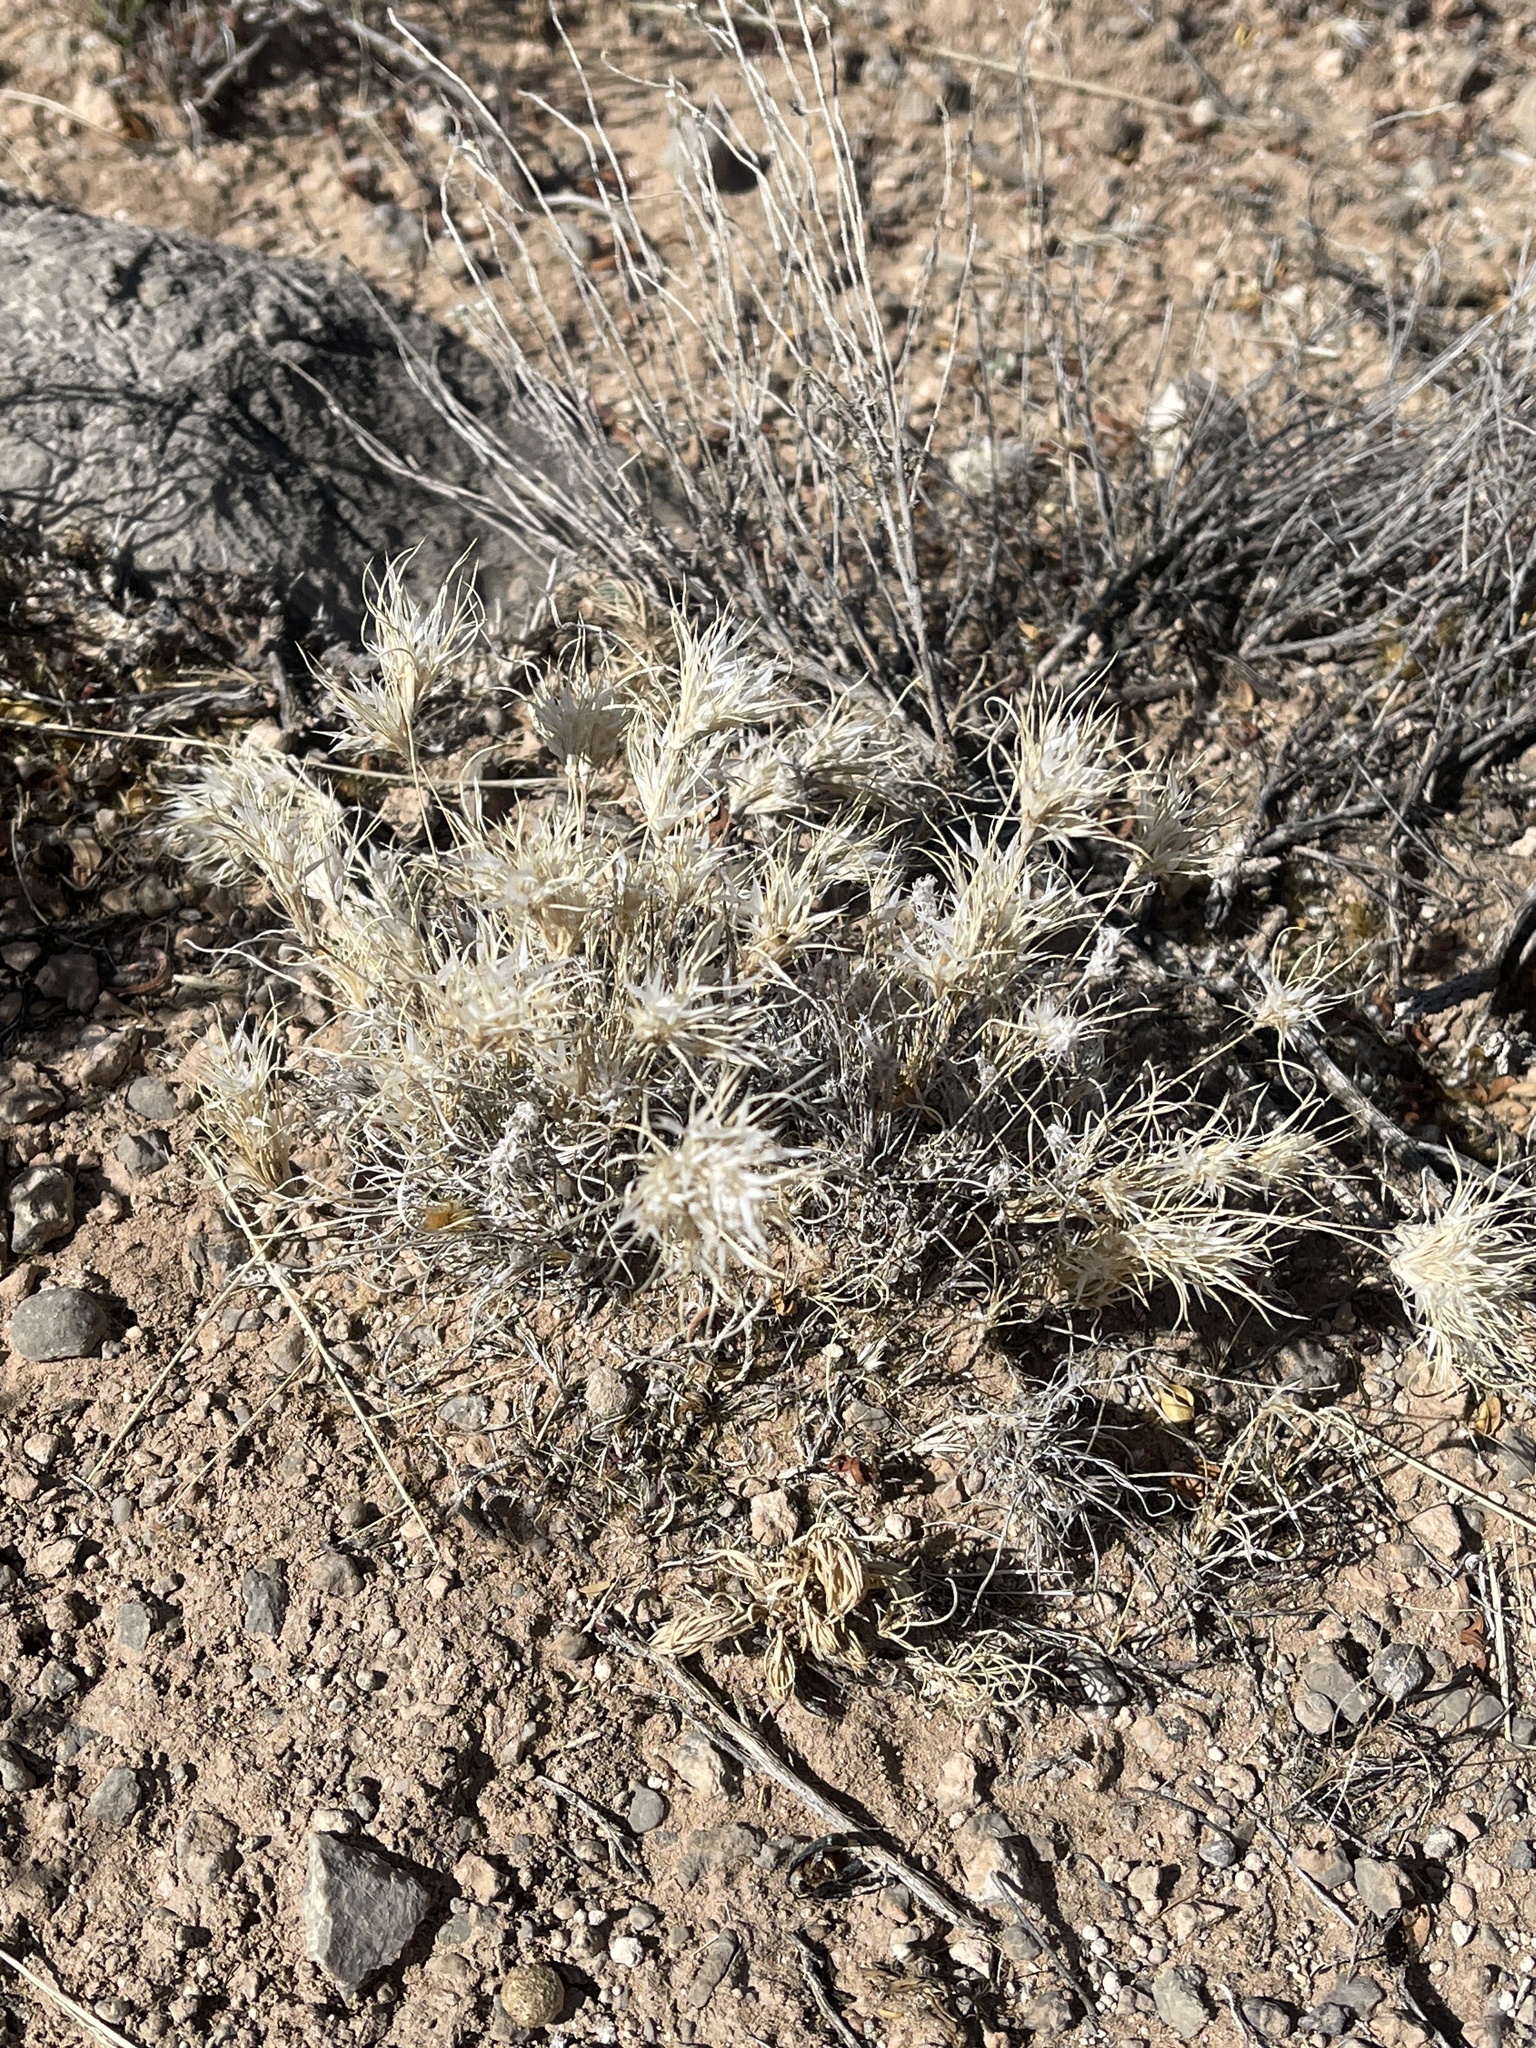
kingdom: Plantae
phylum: Tracheophyta
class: Liliopsida
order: Poales
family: Poaceae
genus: Dasyochloa
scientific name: Dasyochloa pulchella
